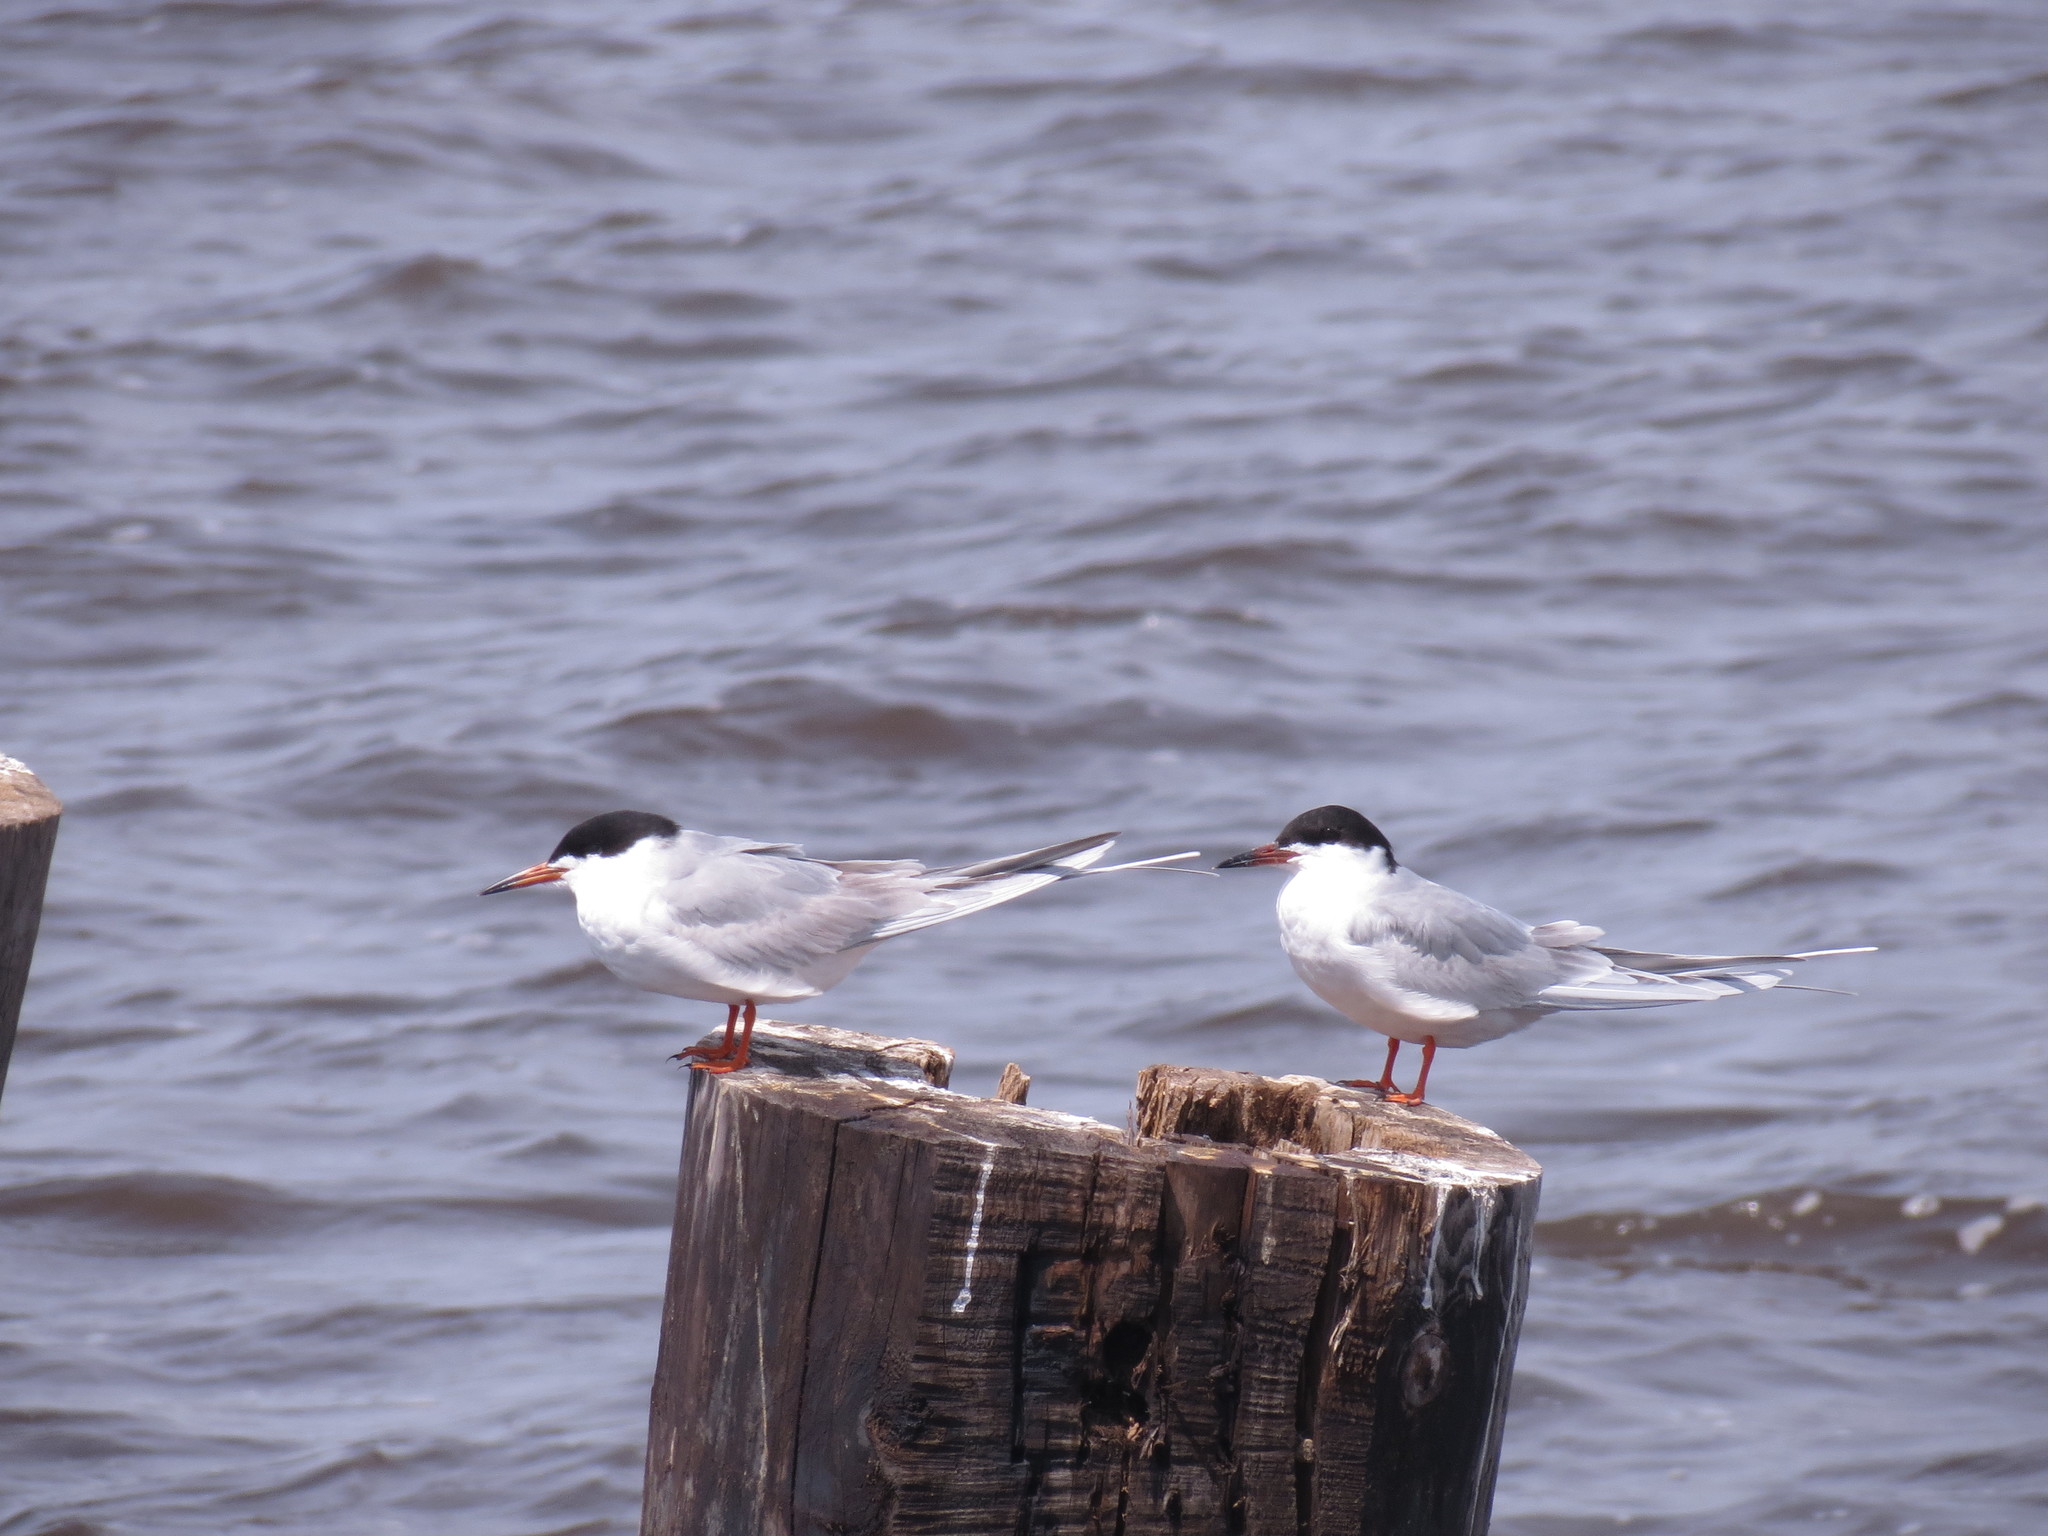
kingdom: Animalia
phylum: Chordata
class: Aves
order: Charadriiformes
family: Laridae
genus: Sterna
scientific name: Sterna forsteri
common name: Forster's tern
